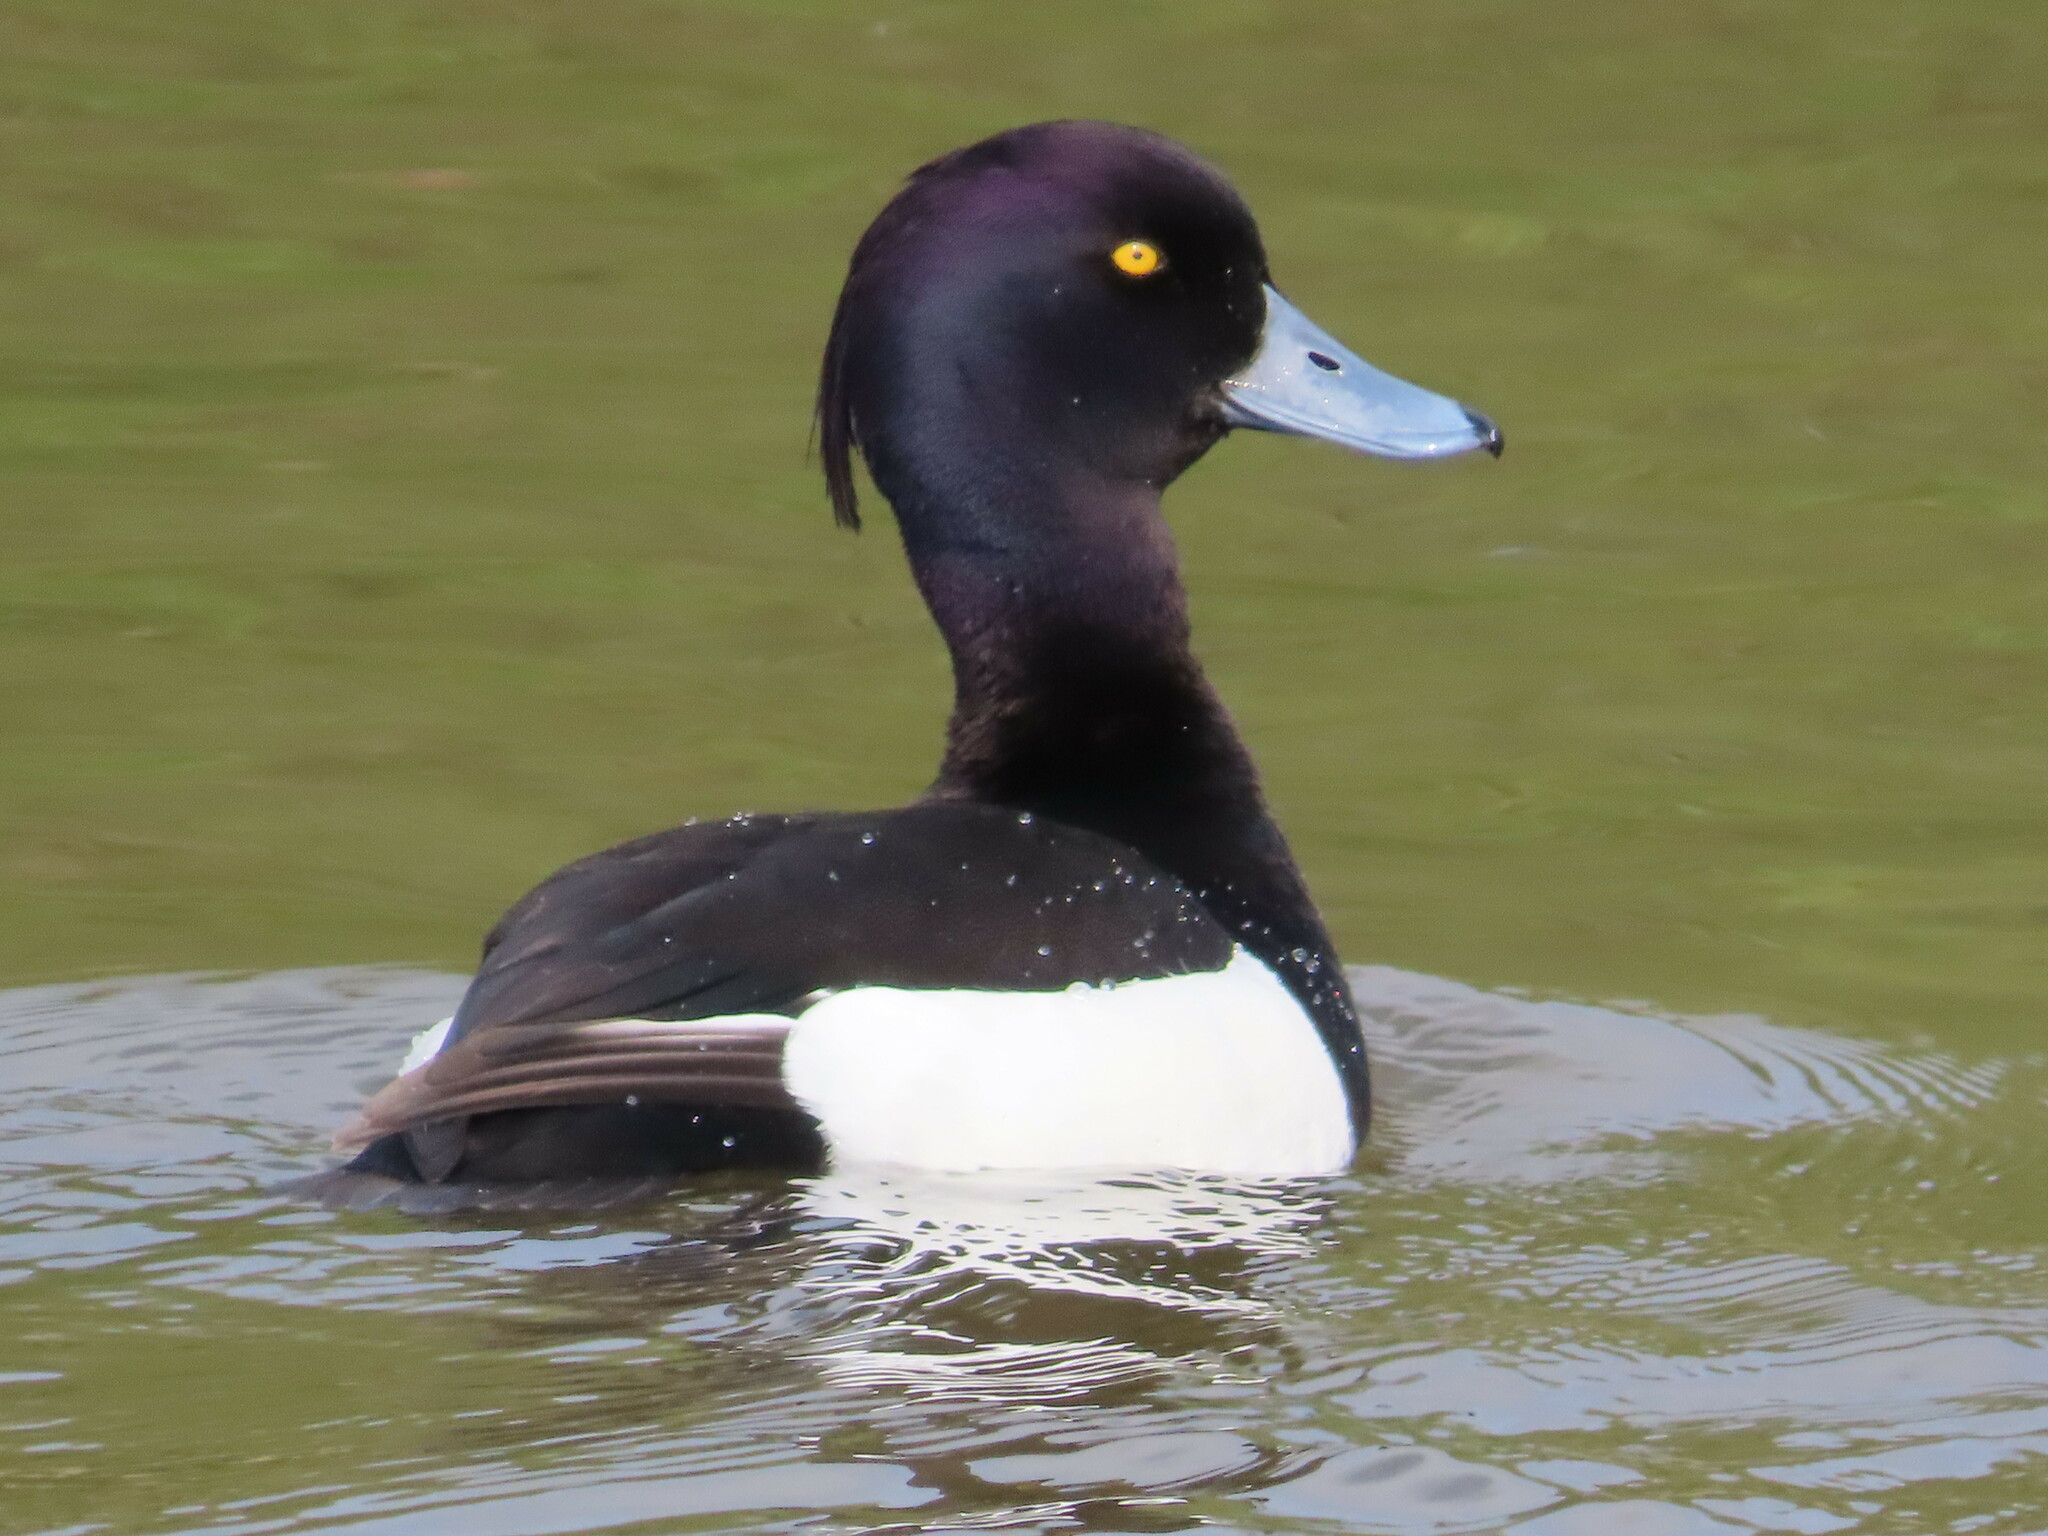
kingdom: Animalia
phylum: Chordata
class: Aves
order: Anseriformes
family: Anatidae
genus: Aythya
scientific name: Aythya fuligula
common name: Tufted duck
